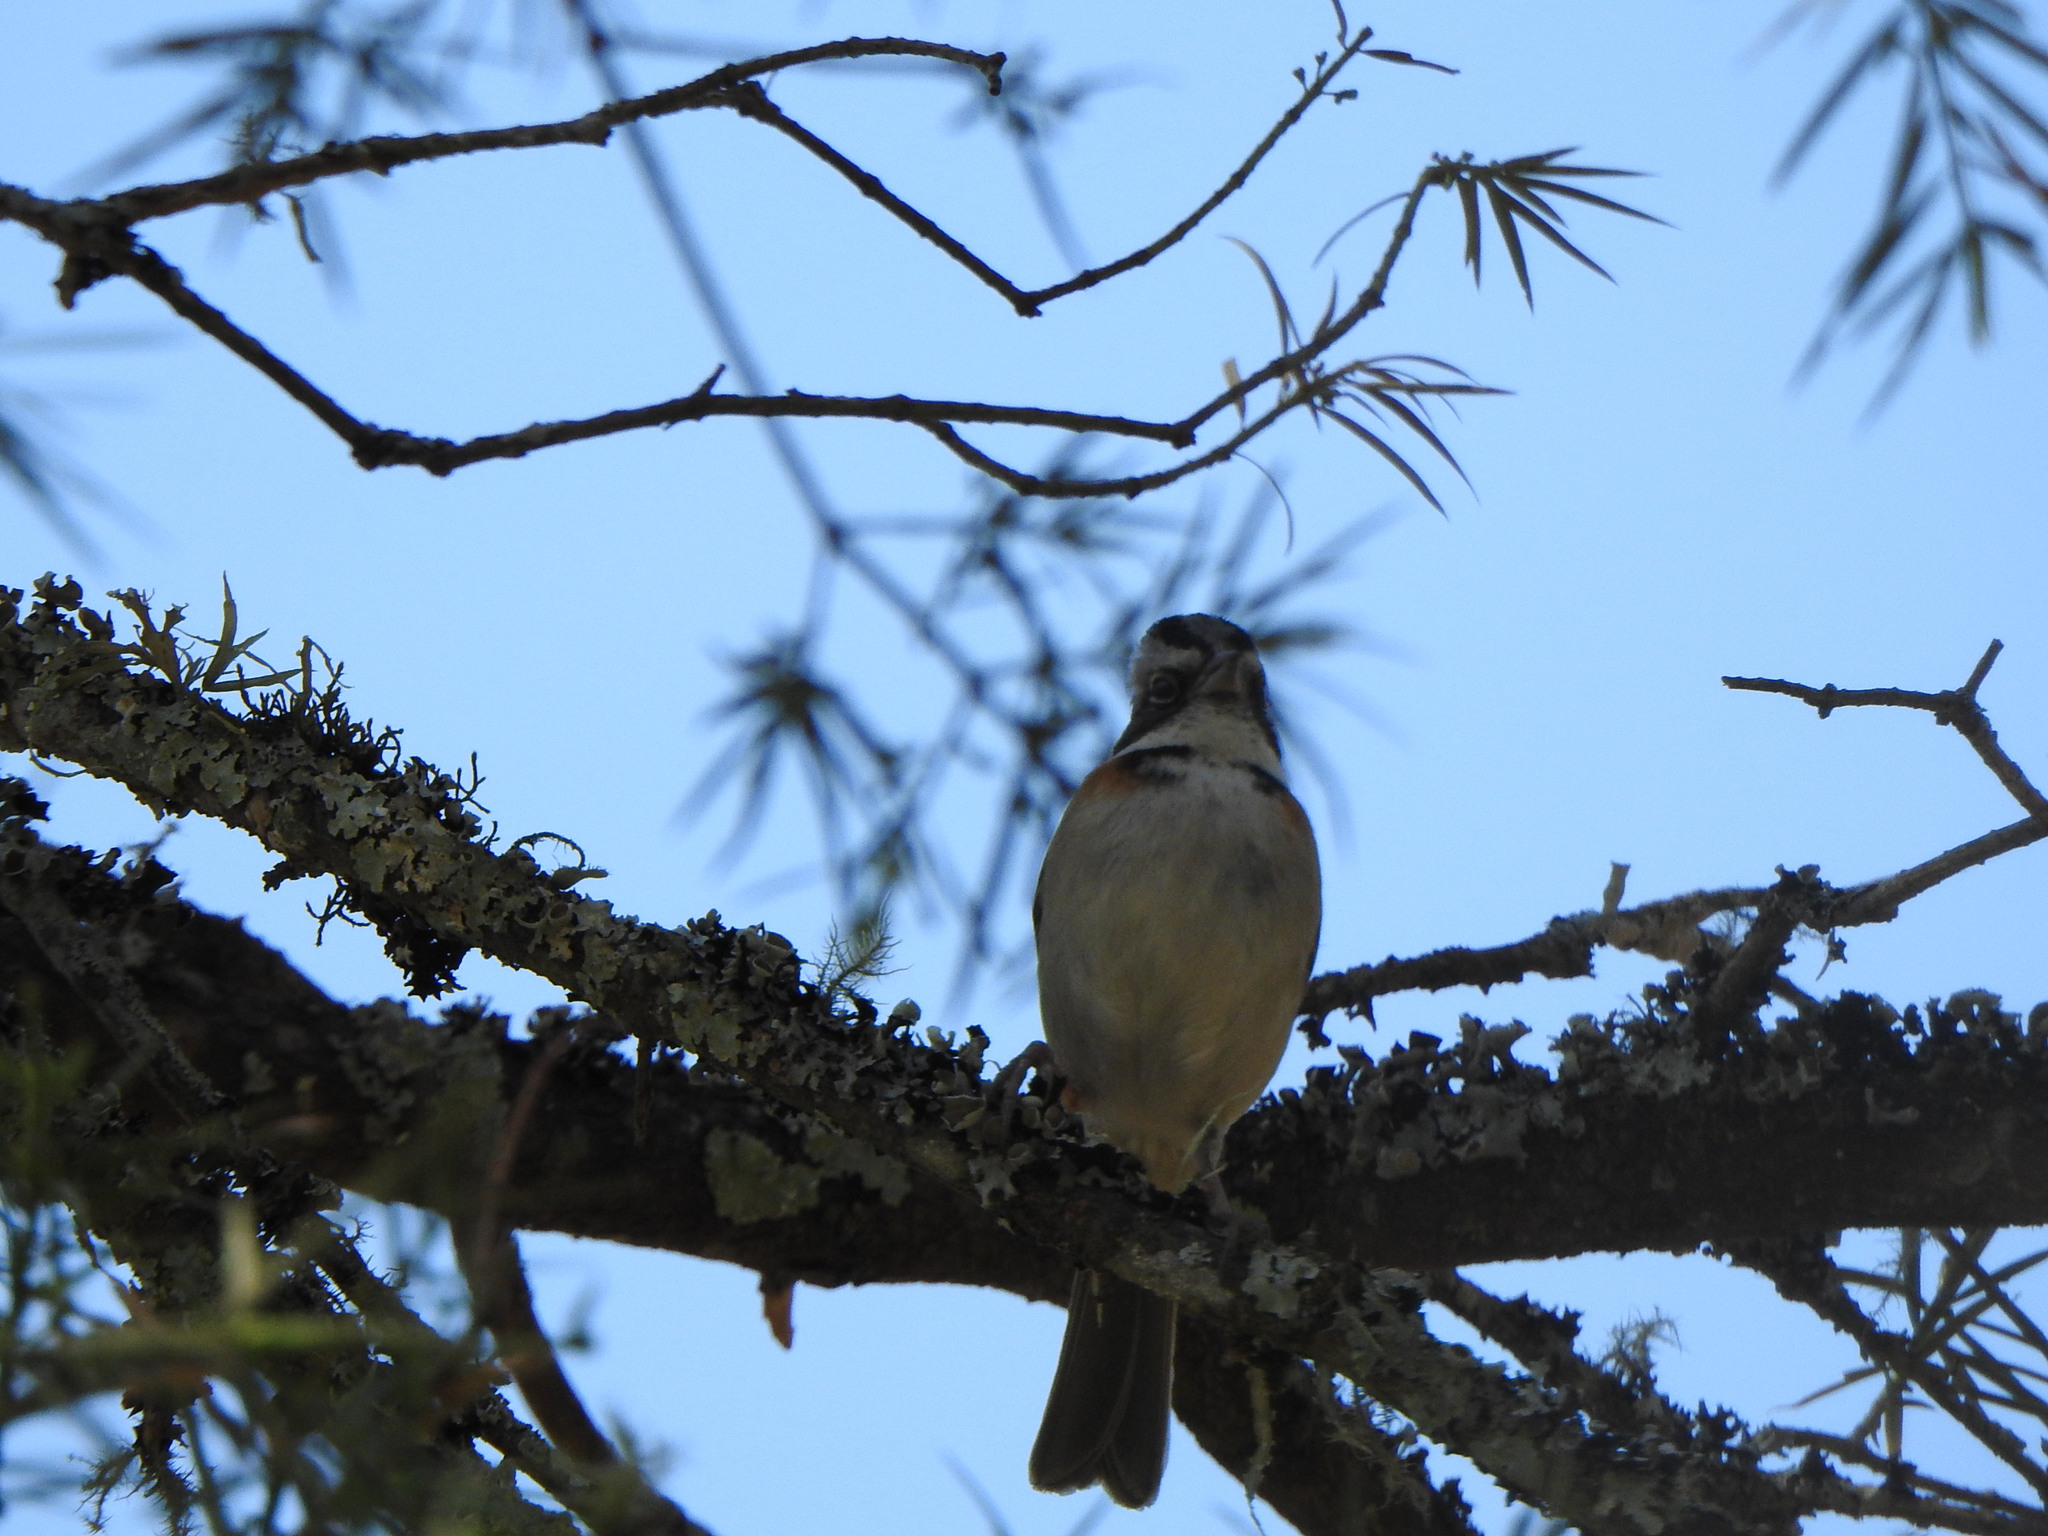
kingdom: Animalia
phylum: Chordata
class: Aves
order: Passeriformes
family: Passerellidae
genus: Zonotrichia
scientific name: Zonotrichia capensis
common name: Rufous-collared sparrow
